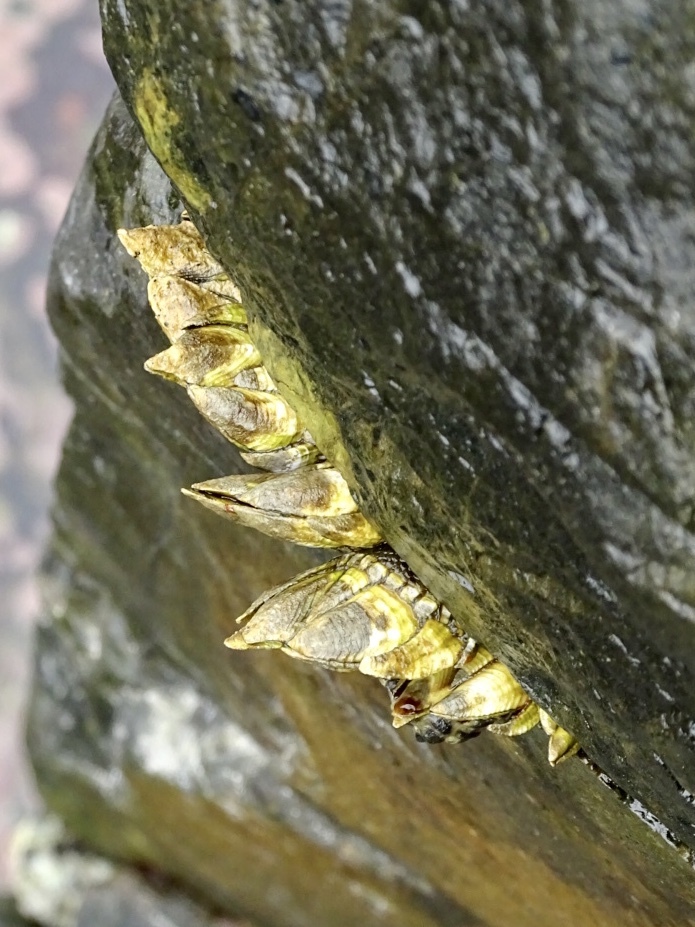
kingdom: Animalia
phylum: Arthropoda
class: Maxillopoda
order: Pedunculata
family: Pollicipedidae
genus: Capitulum
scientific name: Capitulum mitella
